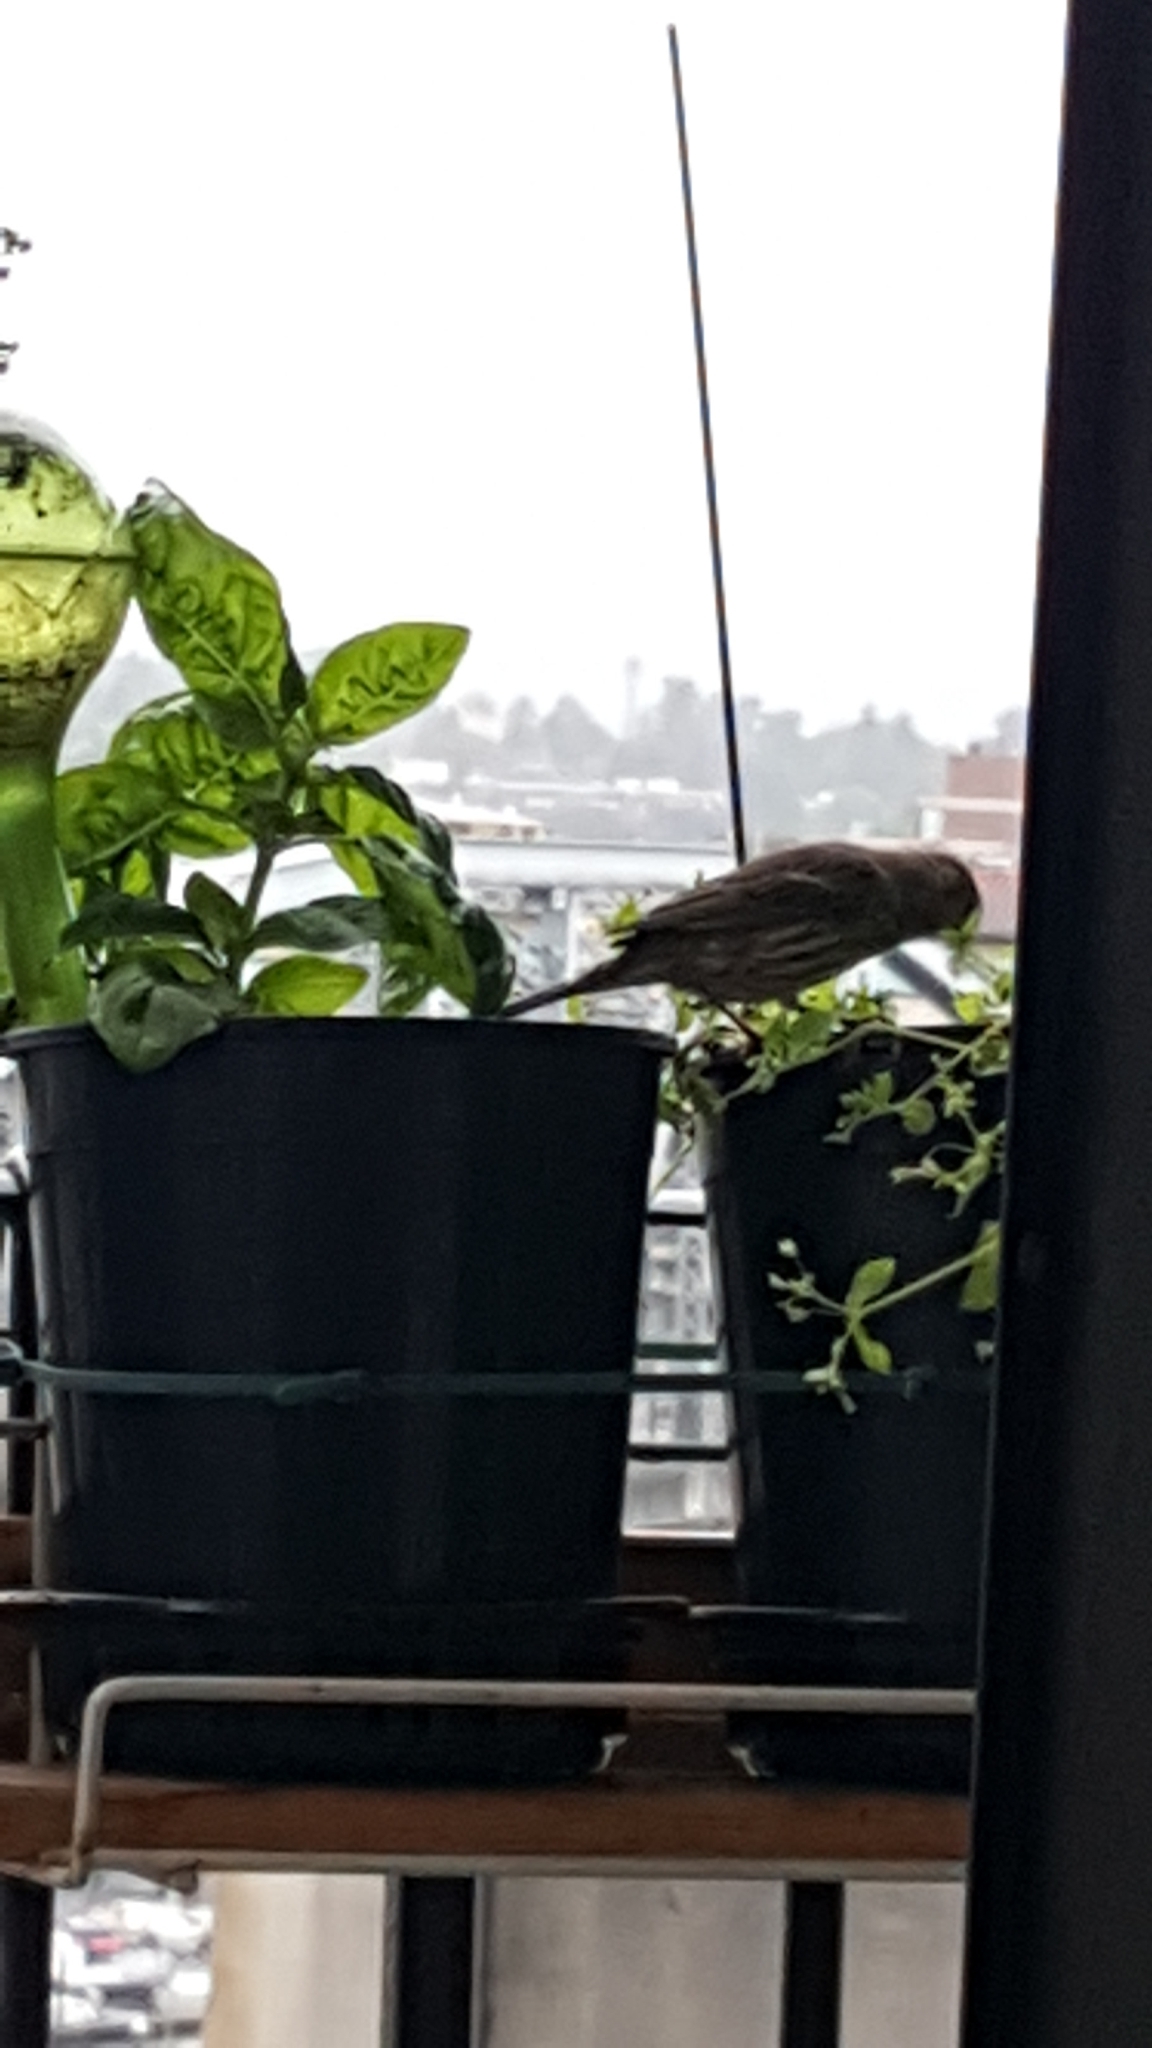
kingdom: Animalia
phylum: Chordata
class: Aves
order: Passeriformes
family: Fringillidae
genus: Haemorhous
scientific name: Haemorhous mexicanus
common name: House finch
